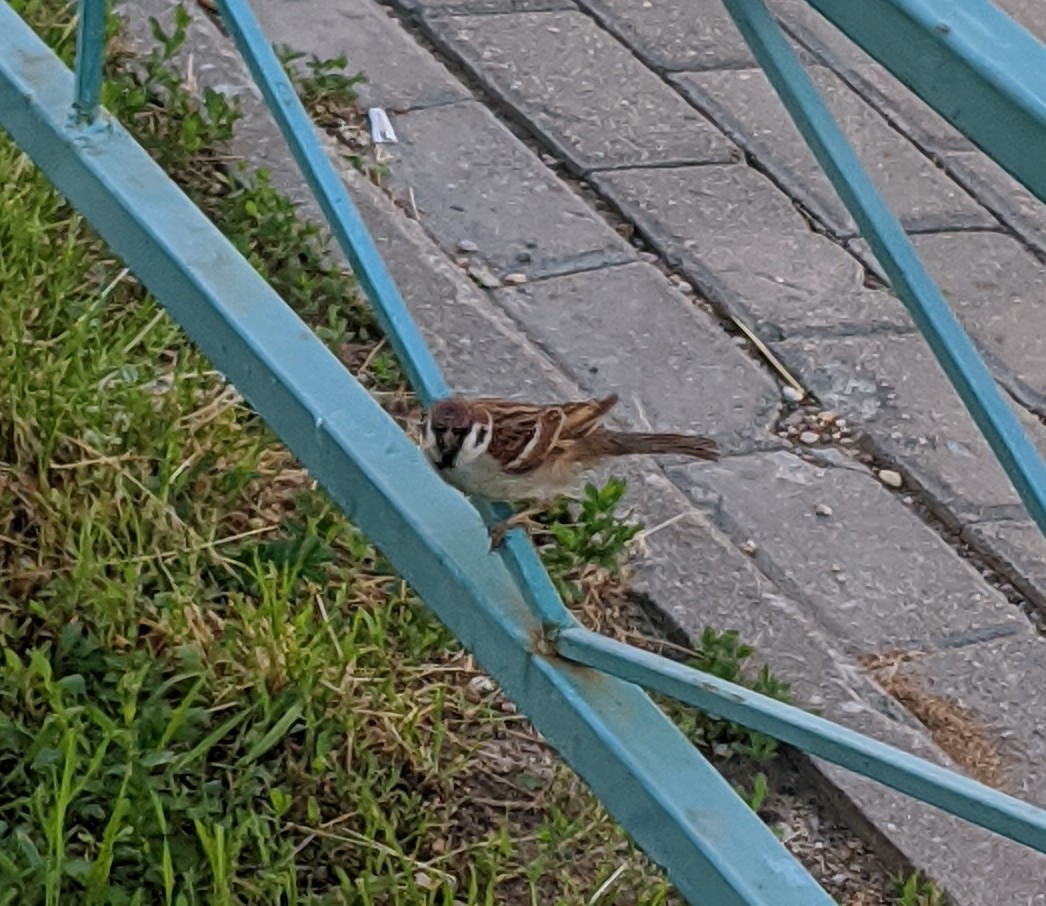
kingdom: Animalia
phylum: Chordata
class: Aves
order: Passeriformes
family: Passeridae
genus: Passer
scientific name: Passer montanus
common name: Eurasian tree sparrow
